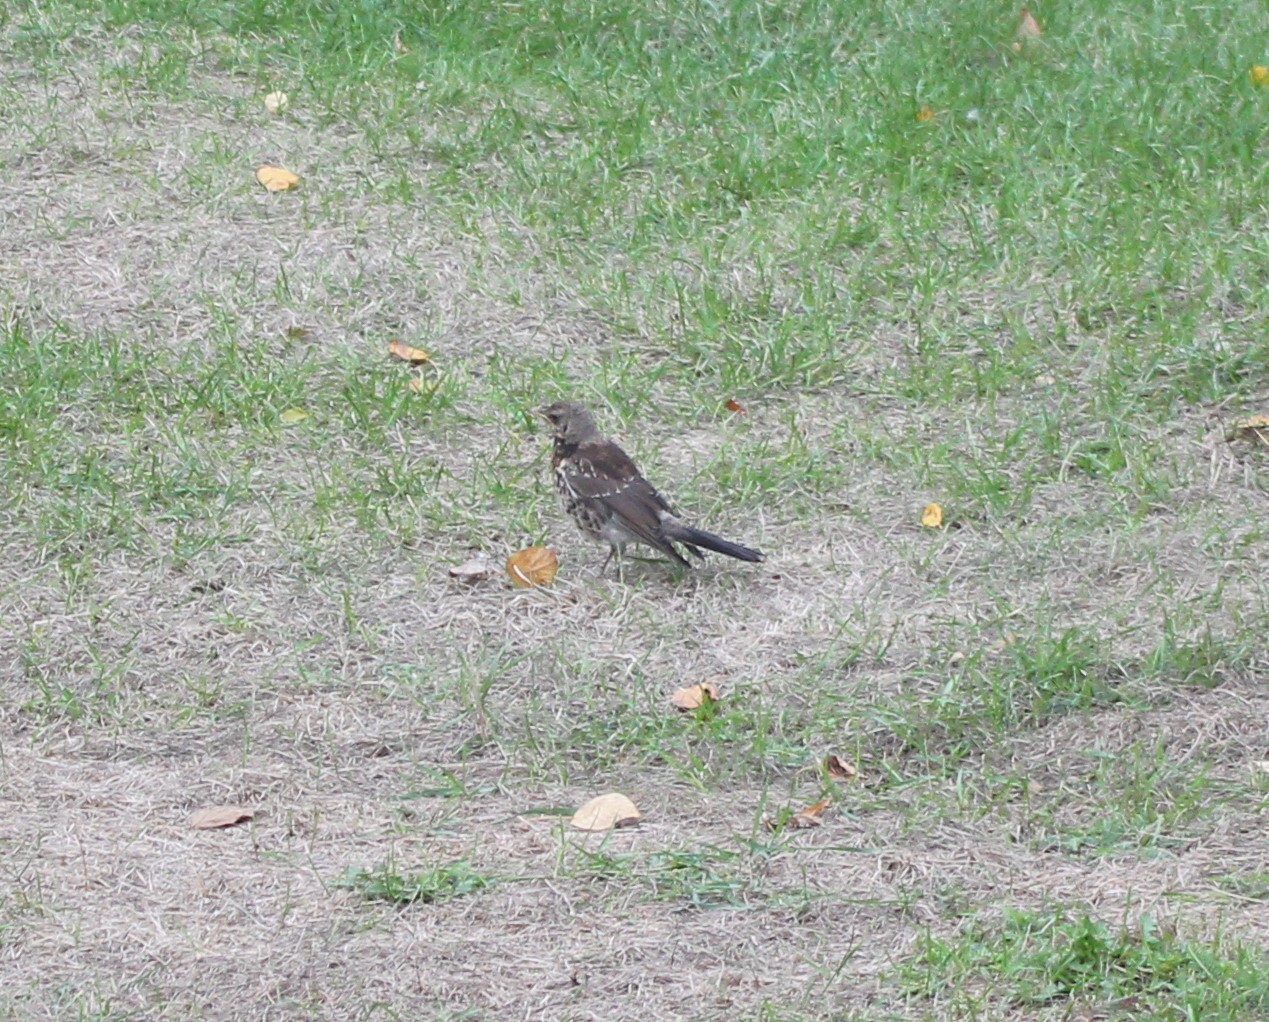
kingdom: Animalia
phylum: Chordata
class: Aves
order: Passeriformes
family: Turdidae
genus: Turdus
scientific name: Turdus pilaris
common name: Fieldfare
